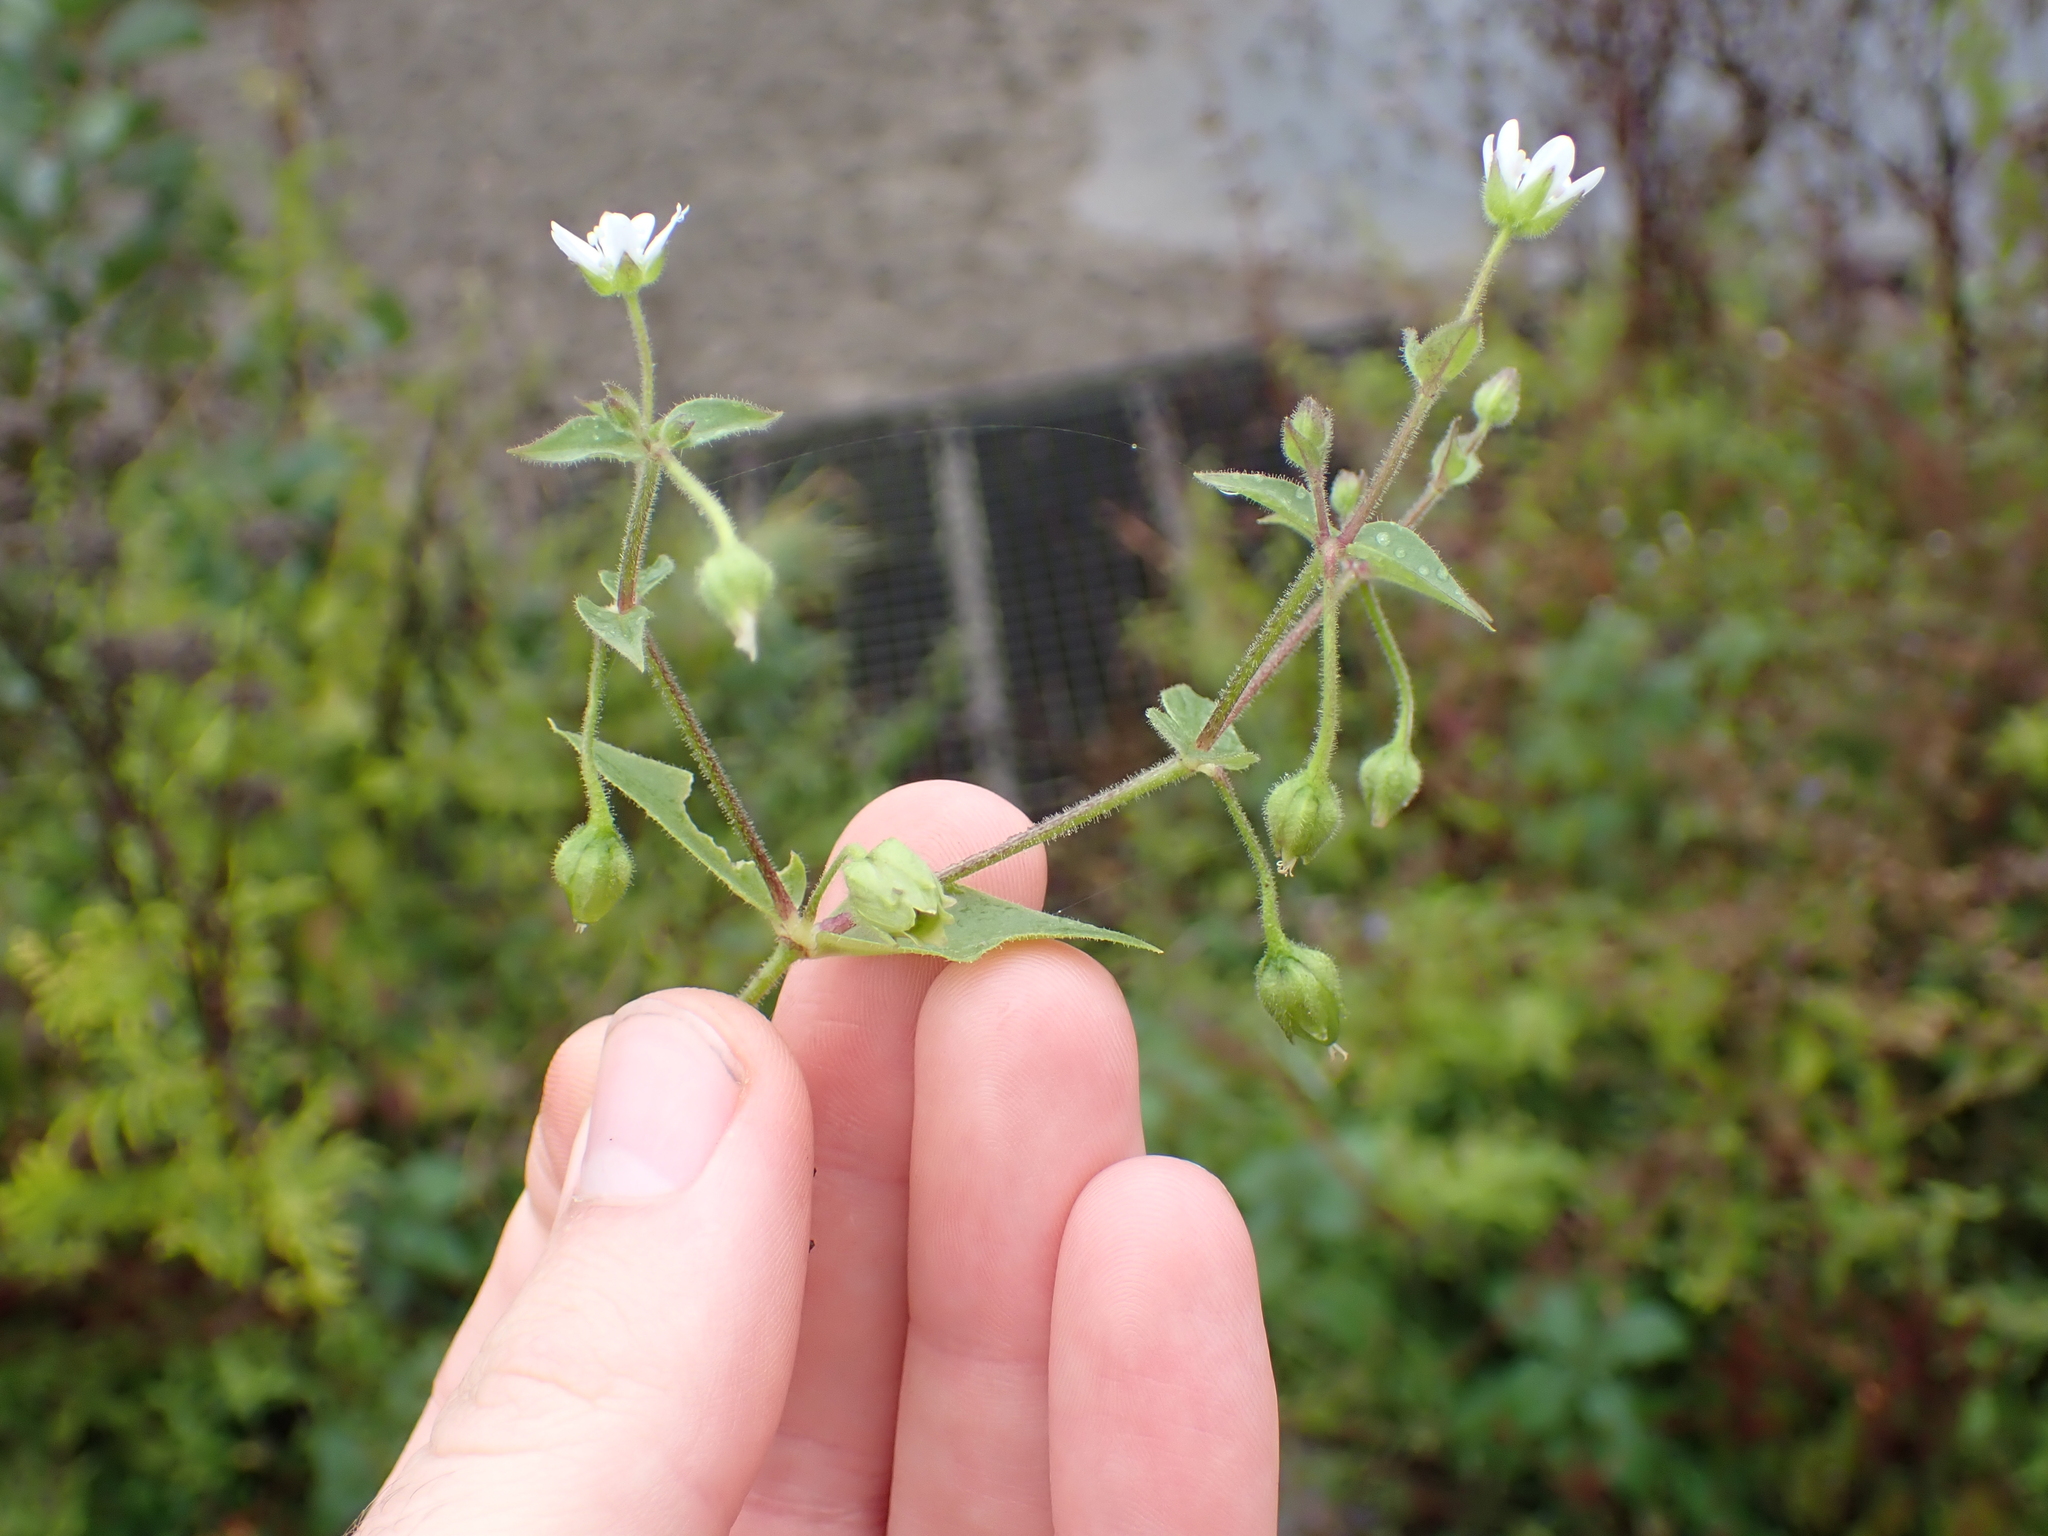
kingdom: Plantae
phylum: Tracheophyta
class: Magnoliopsida
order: Caryophyllales
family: Caryophyllaceae
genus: Stellaria
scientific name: Stellaria aquatica
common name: Water chickweed
